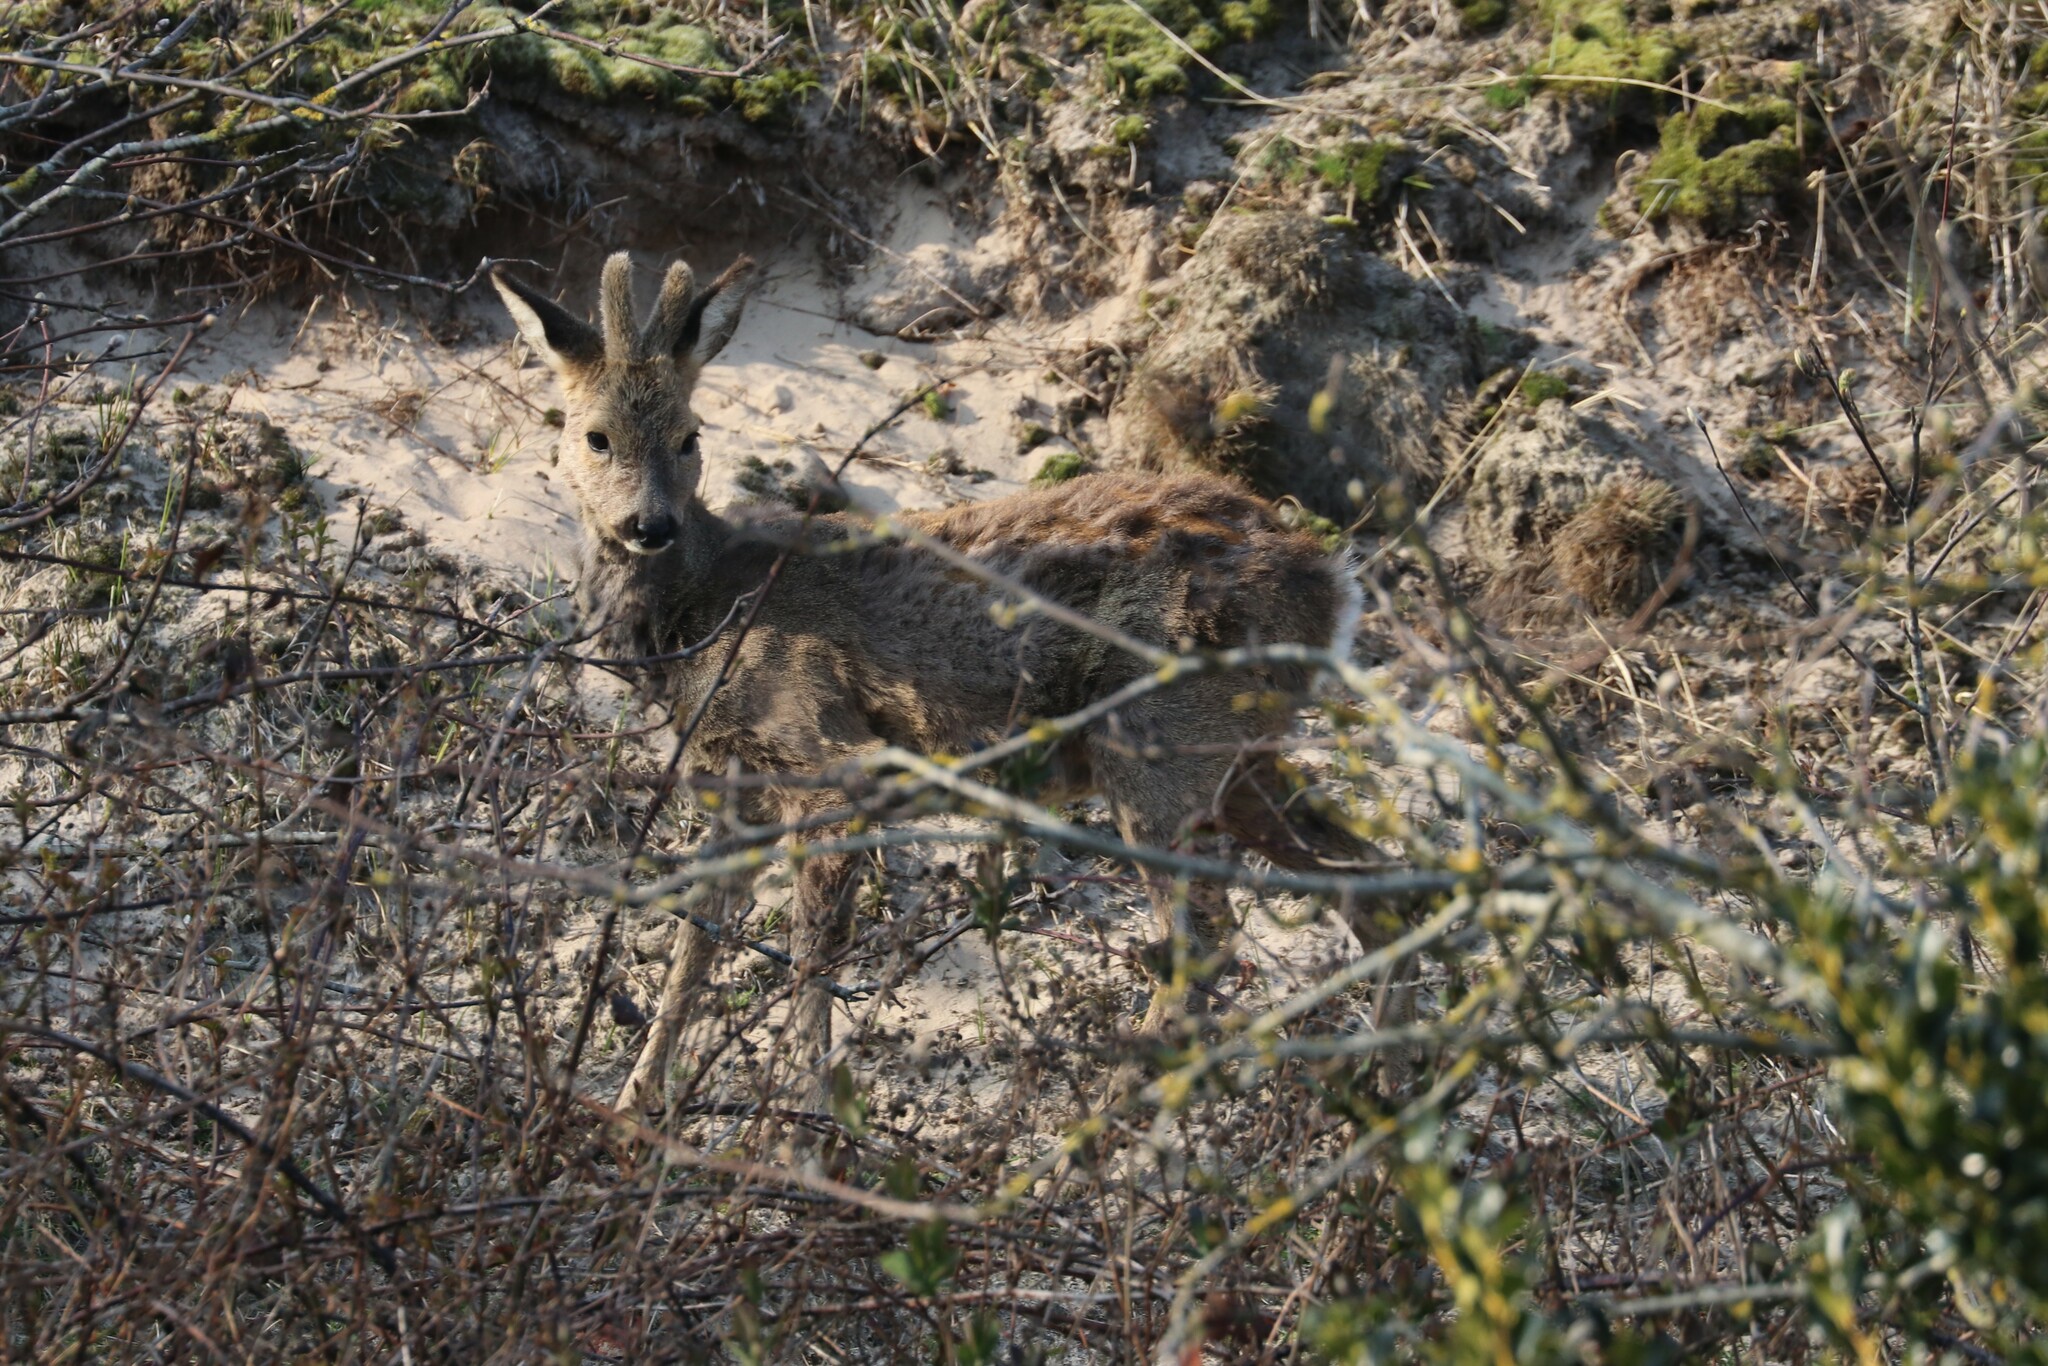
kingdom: Animalia
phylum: Chordata
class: Mammalia
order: Artiodactyla
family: Cervidae
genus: Capreolus
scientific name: Capreolus capreolus
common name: Western roe deer
